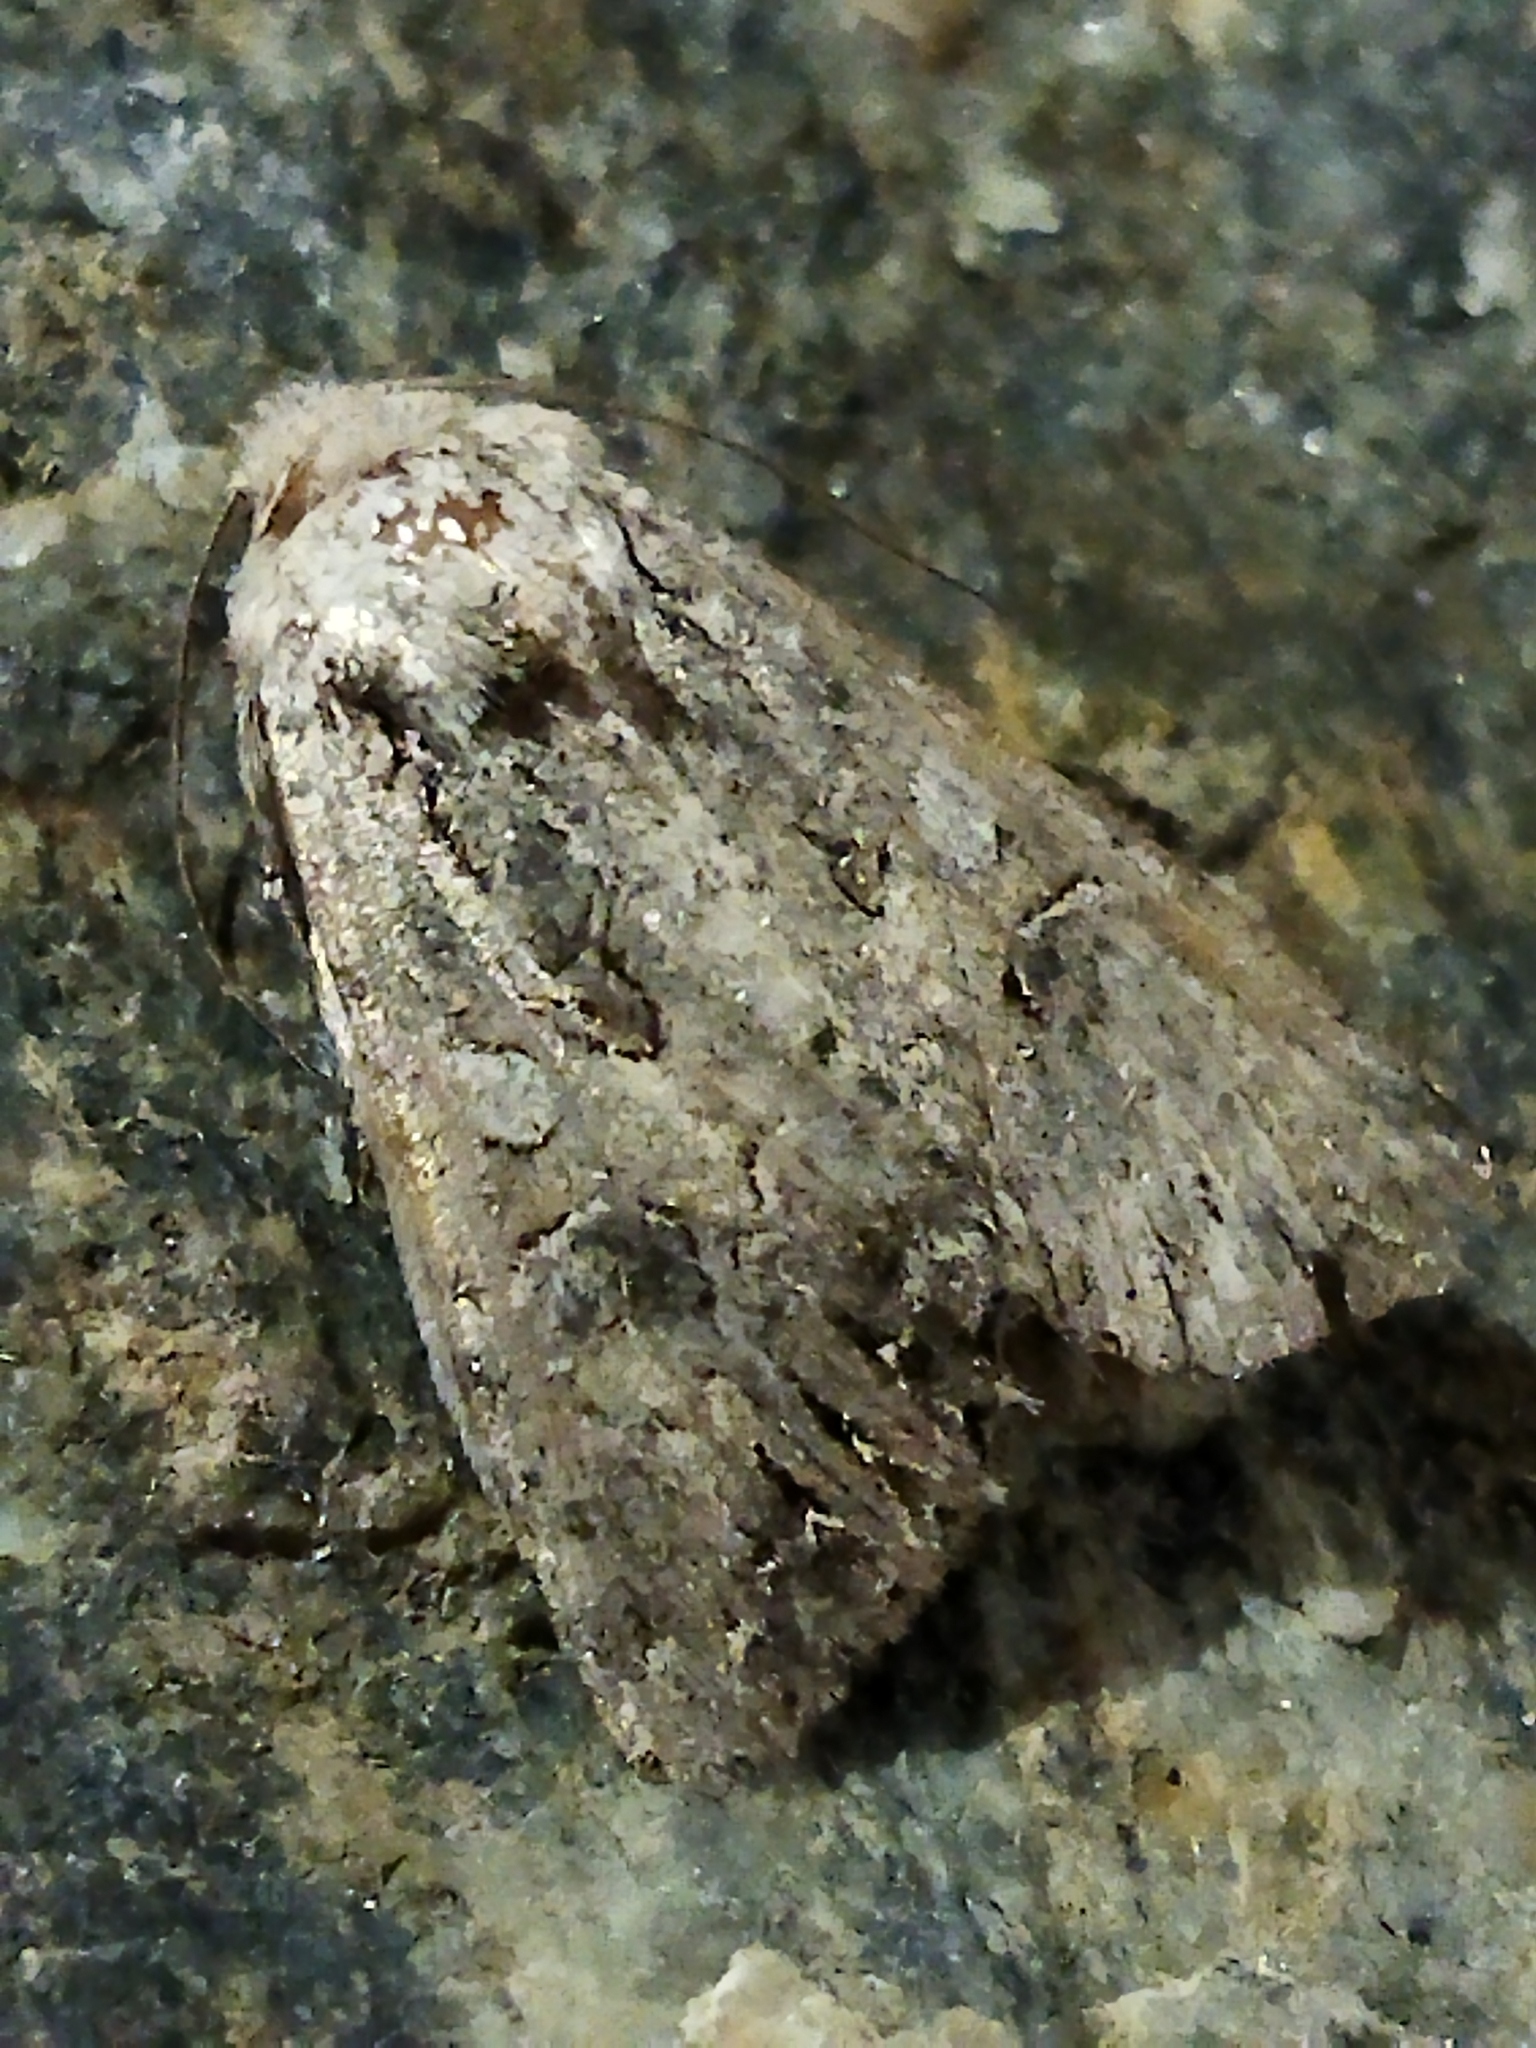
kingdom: Animalia
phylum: Arthropoda
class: Insecta
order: Lepidoptera
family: Noctuidae
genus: Anarta
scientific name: Anarta trifolii
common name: Clover cutworm moth
